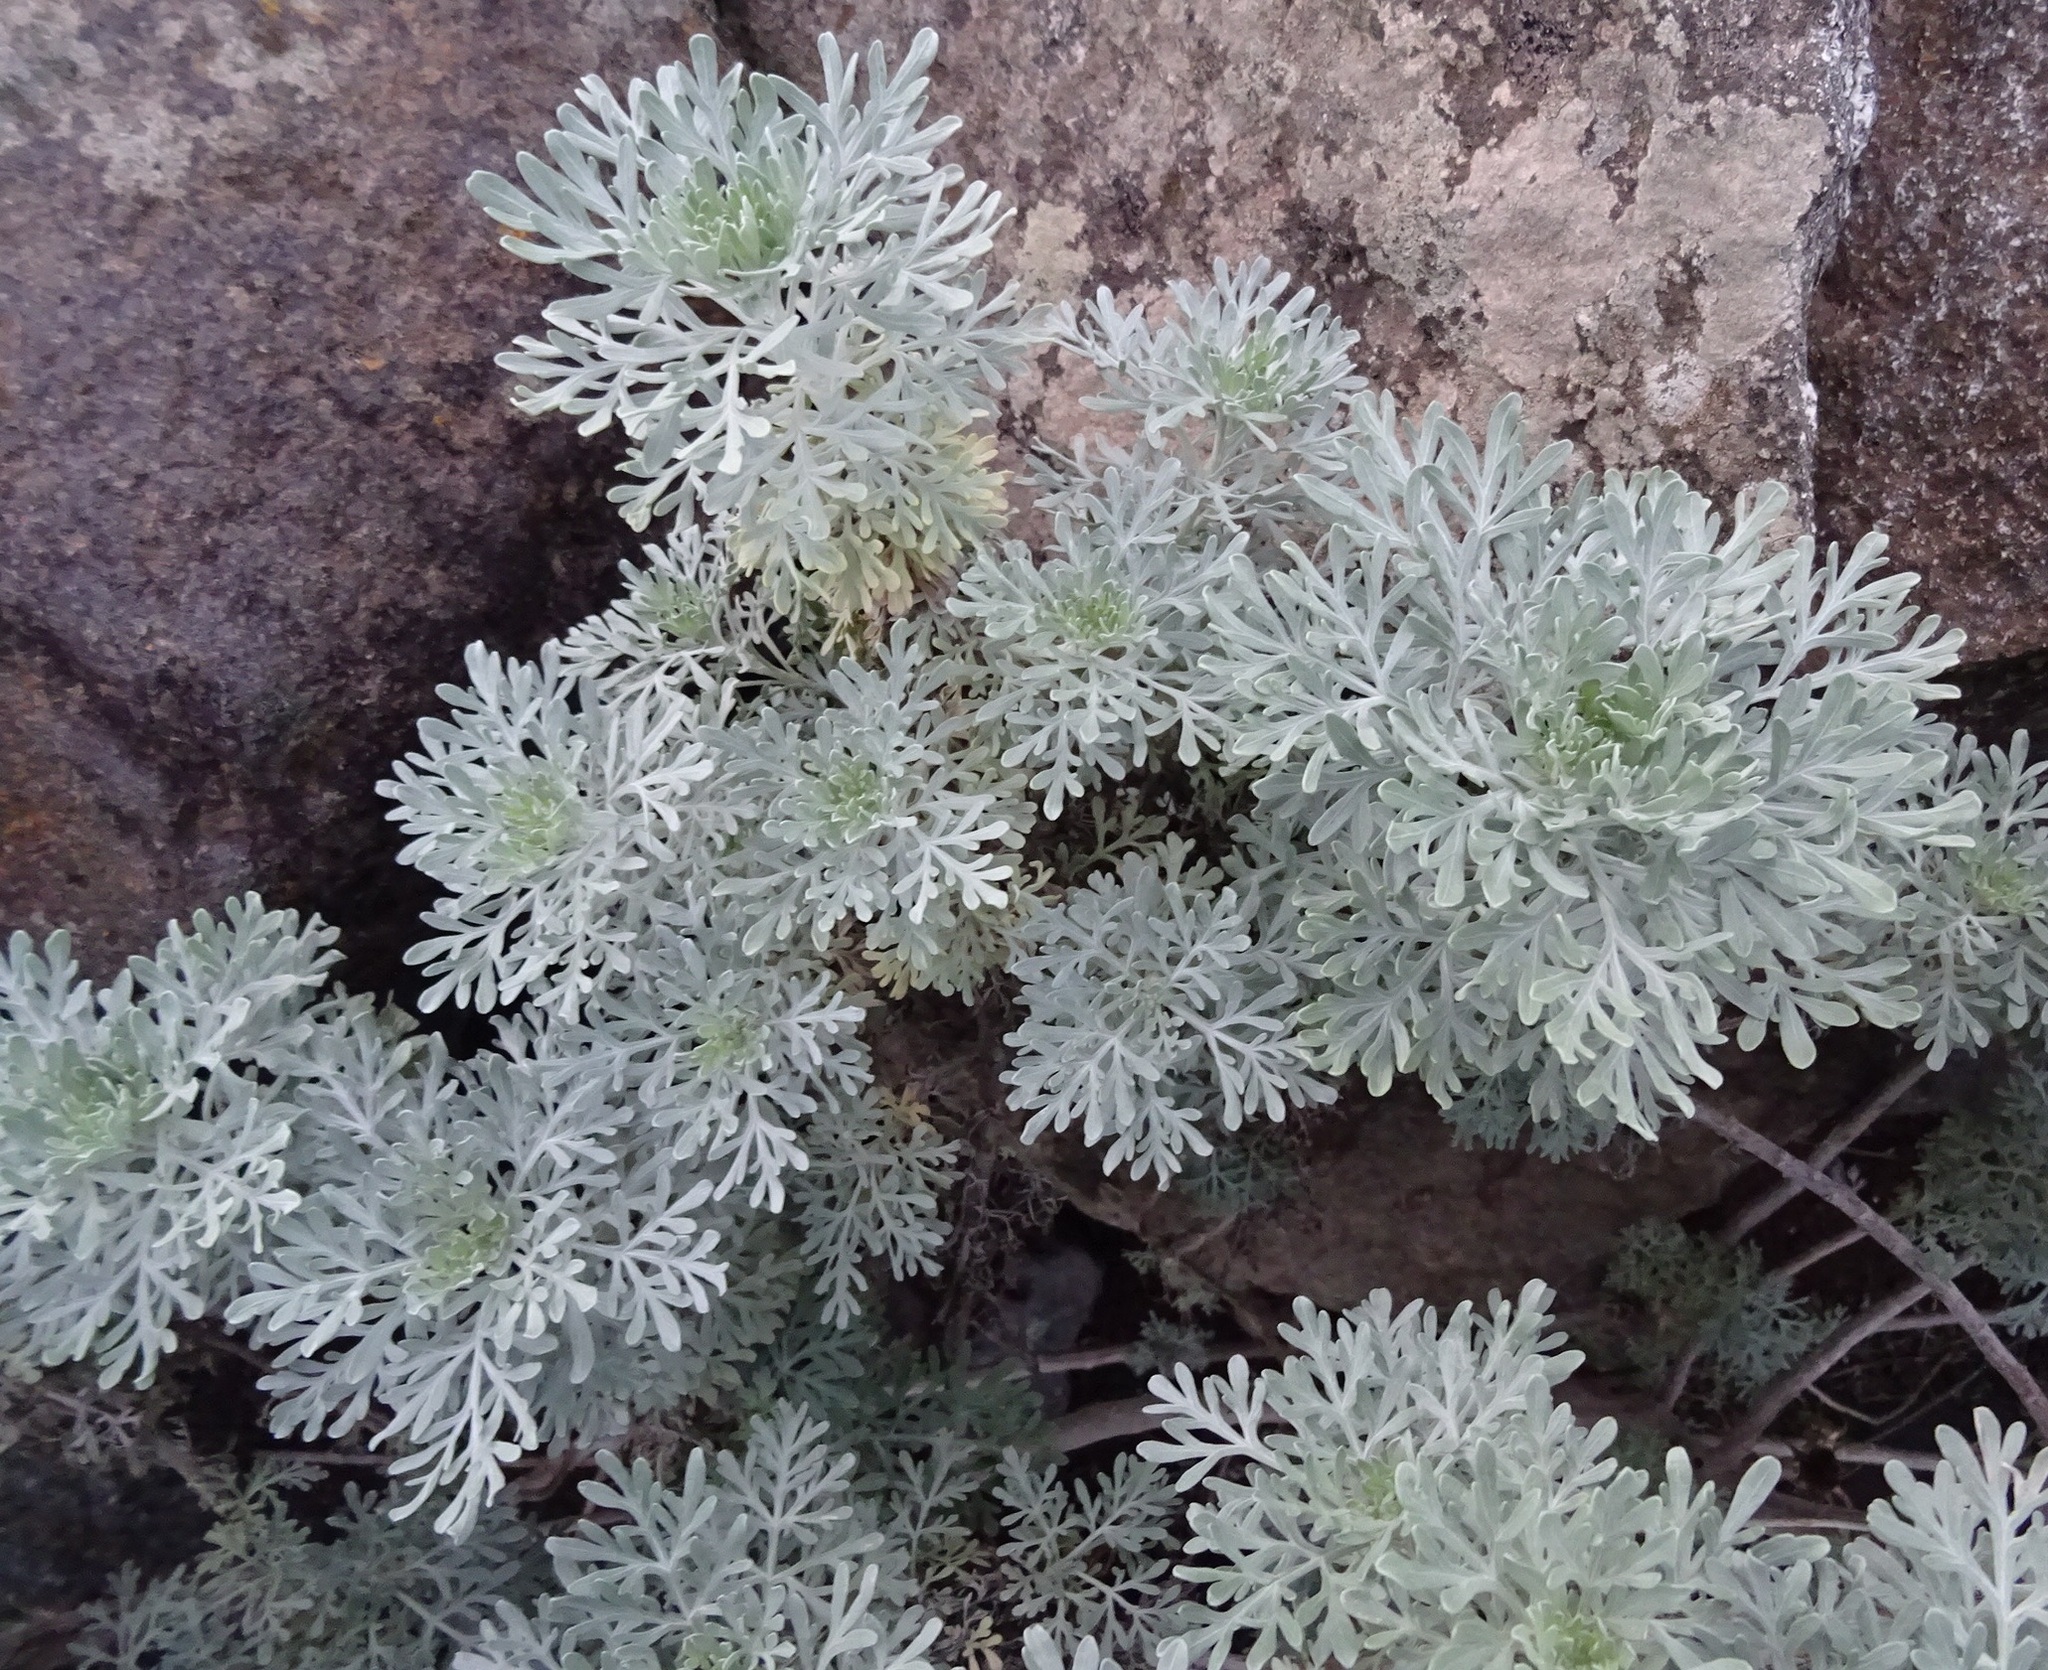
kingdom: Plantae
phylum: Tracheophyta
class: Magnoliopsida
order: Asterales
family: Asteraceae
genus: Artemisia
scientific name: Artemisia thuscula
